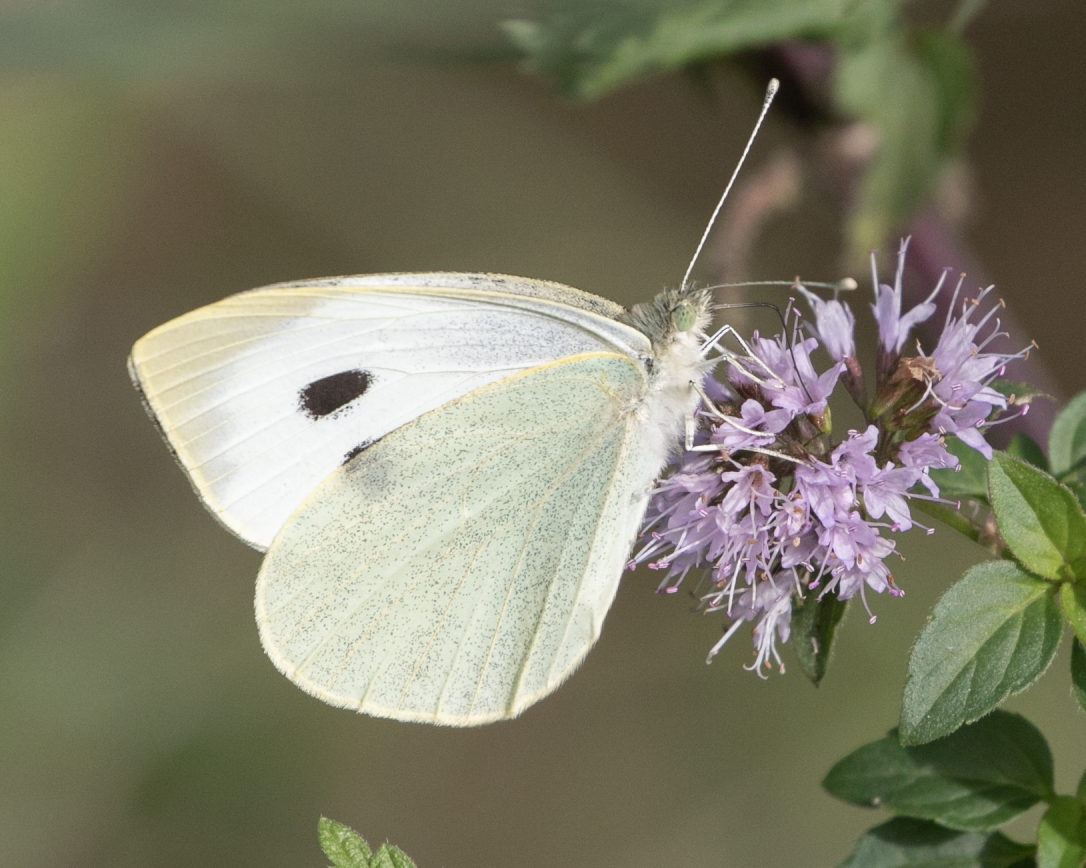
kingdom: Animalia
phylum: Arthropoda
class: Insecta
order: Lepidoptera
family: Pieridae
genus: Pieris
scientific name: Pieris brassicae
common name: Large white
